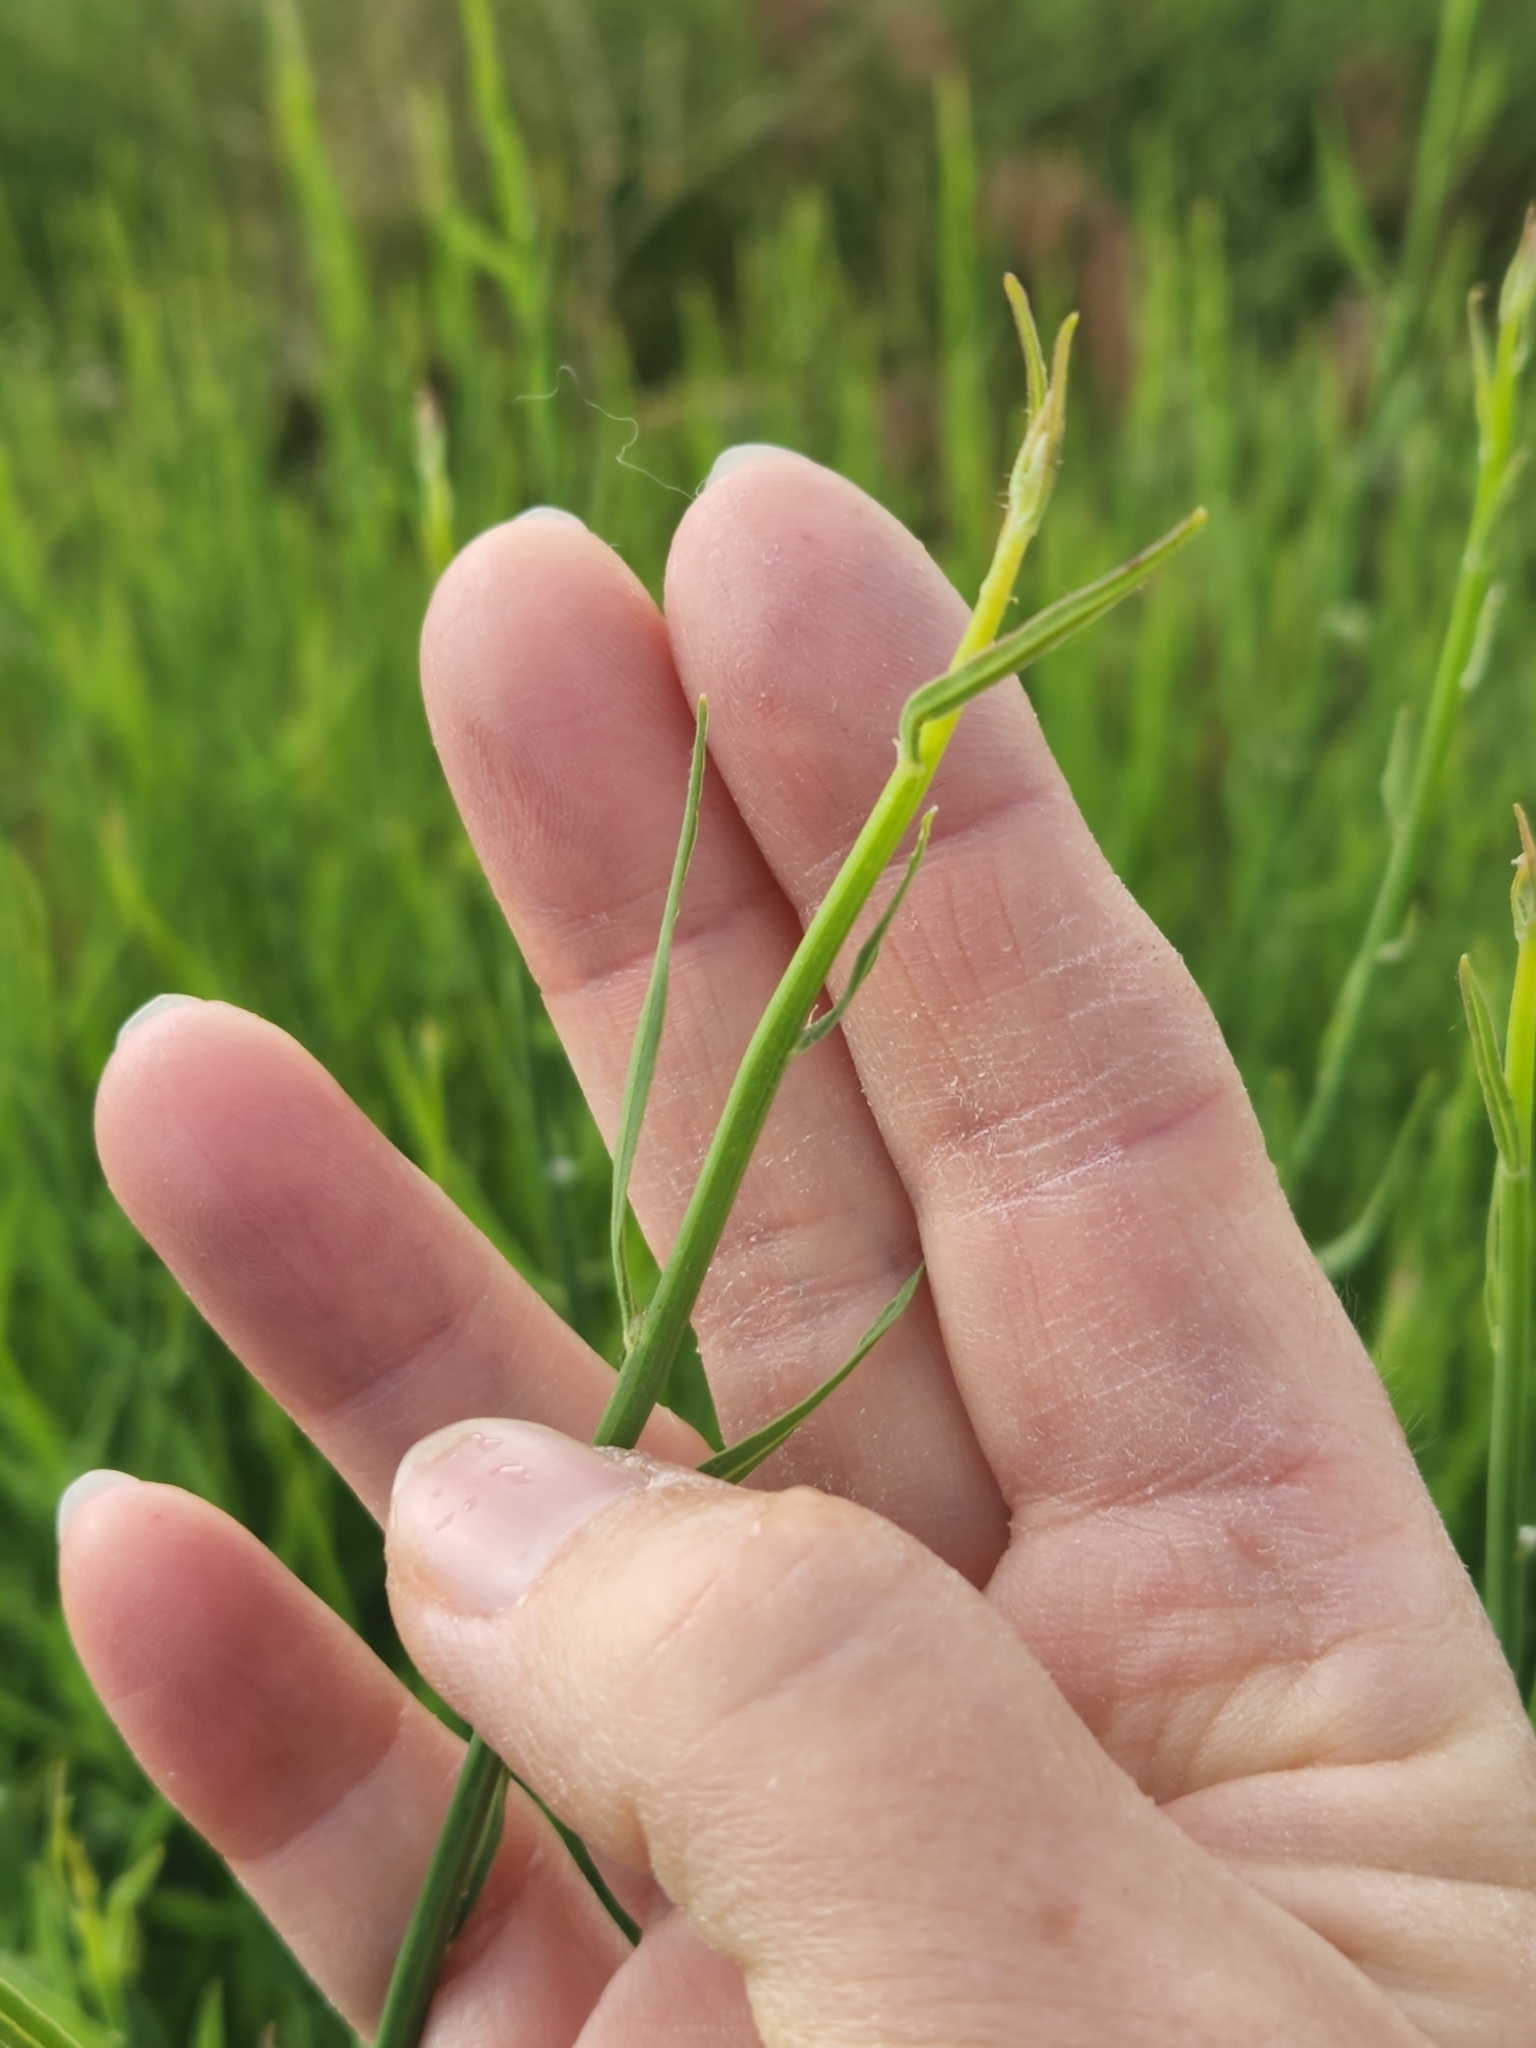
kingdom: Plantae
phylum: Tracheophyta
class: Magnoliopsida
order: Asterales
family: Asteraceae
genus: Chondrilla
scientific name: Chondrilla juncea
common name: Skeleton weed
